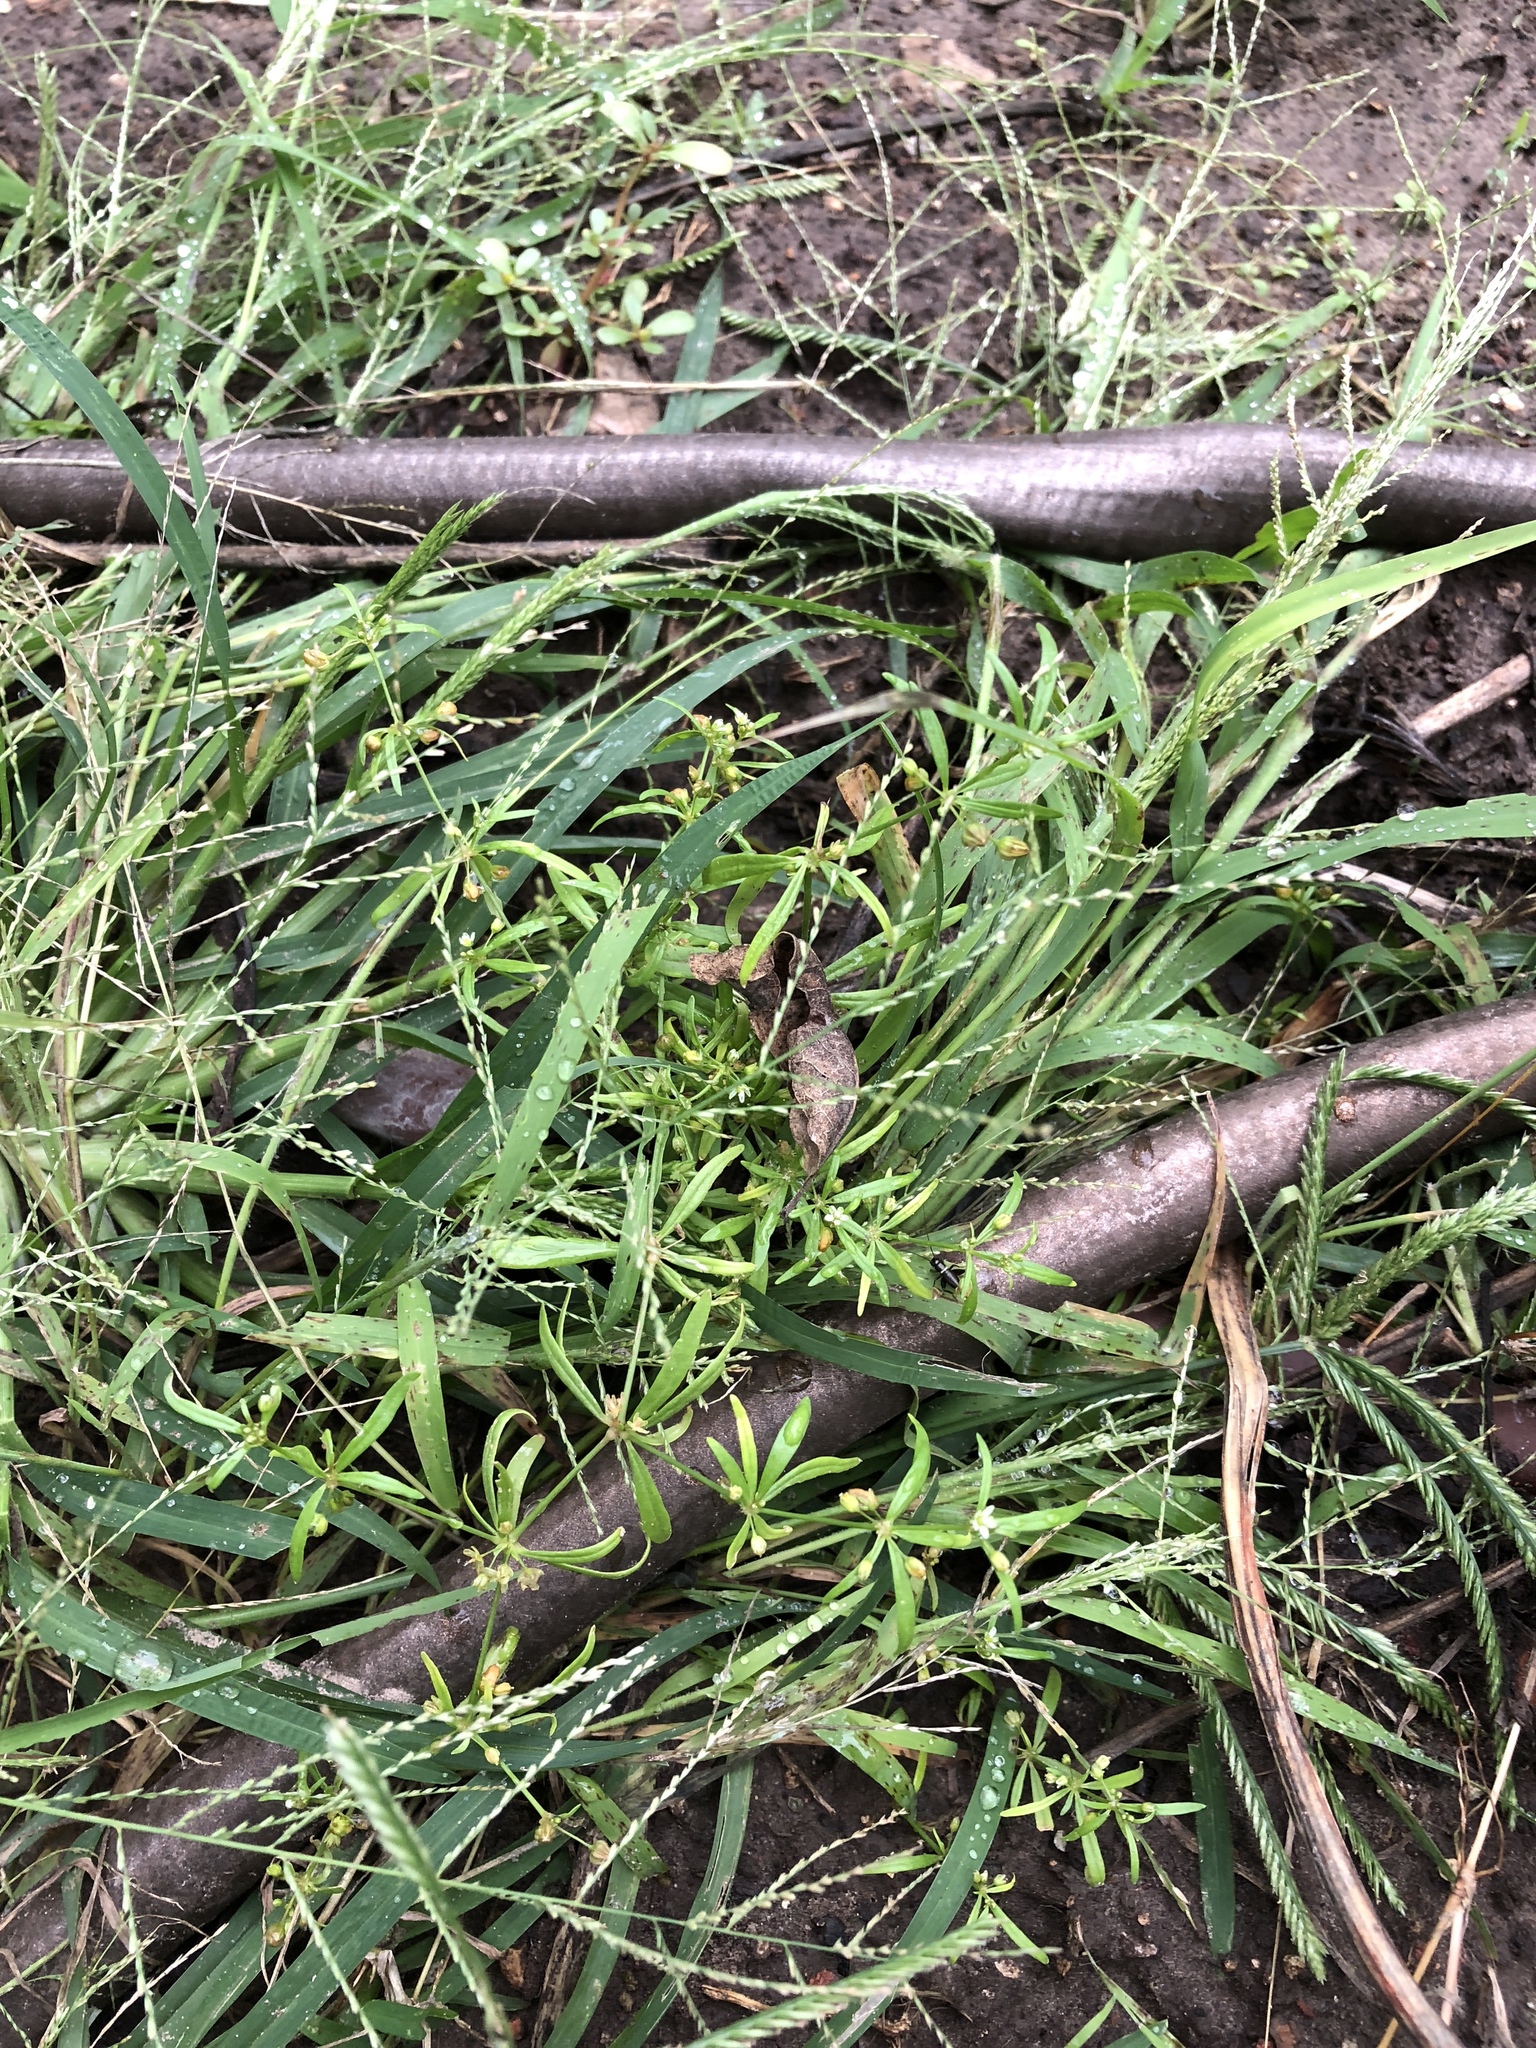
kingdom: Plantae
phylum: Tracheophyta
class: Magnoliopsida
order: Caryophyllales
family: Molluginaceae
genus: Mollugo
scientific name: Mollugo verticillata
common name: Green carpetweed
